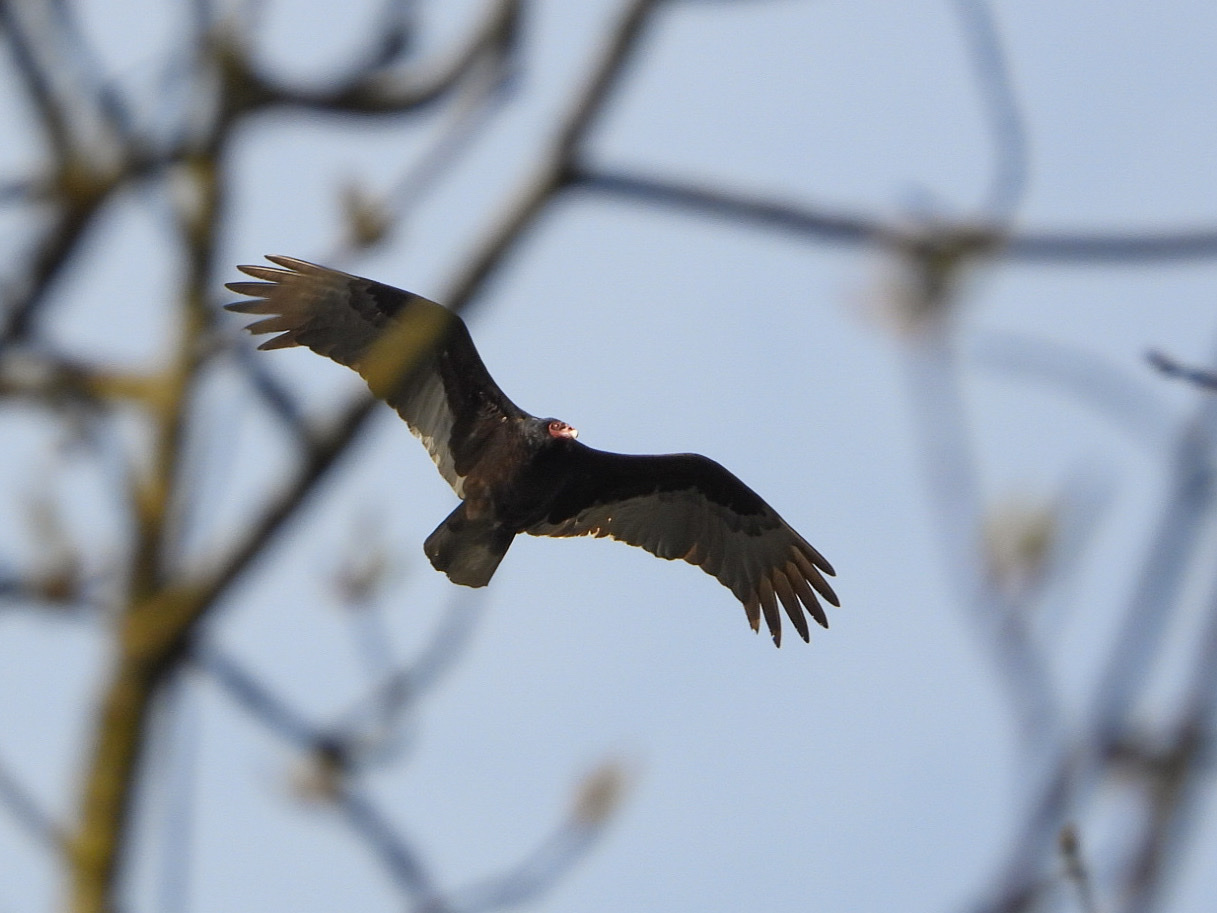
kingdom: Animalia
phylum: Chordata
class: Aves
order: Accipitriformes
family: Cathartidae
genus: Cathartes
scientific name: Cathartes aura
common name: Turkey vulture
